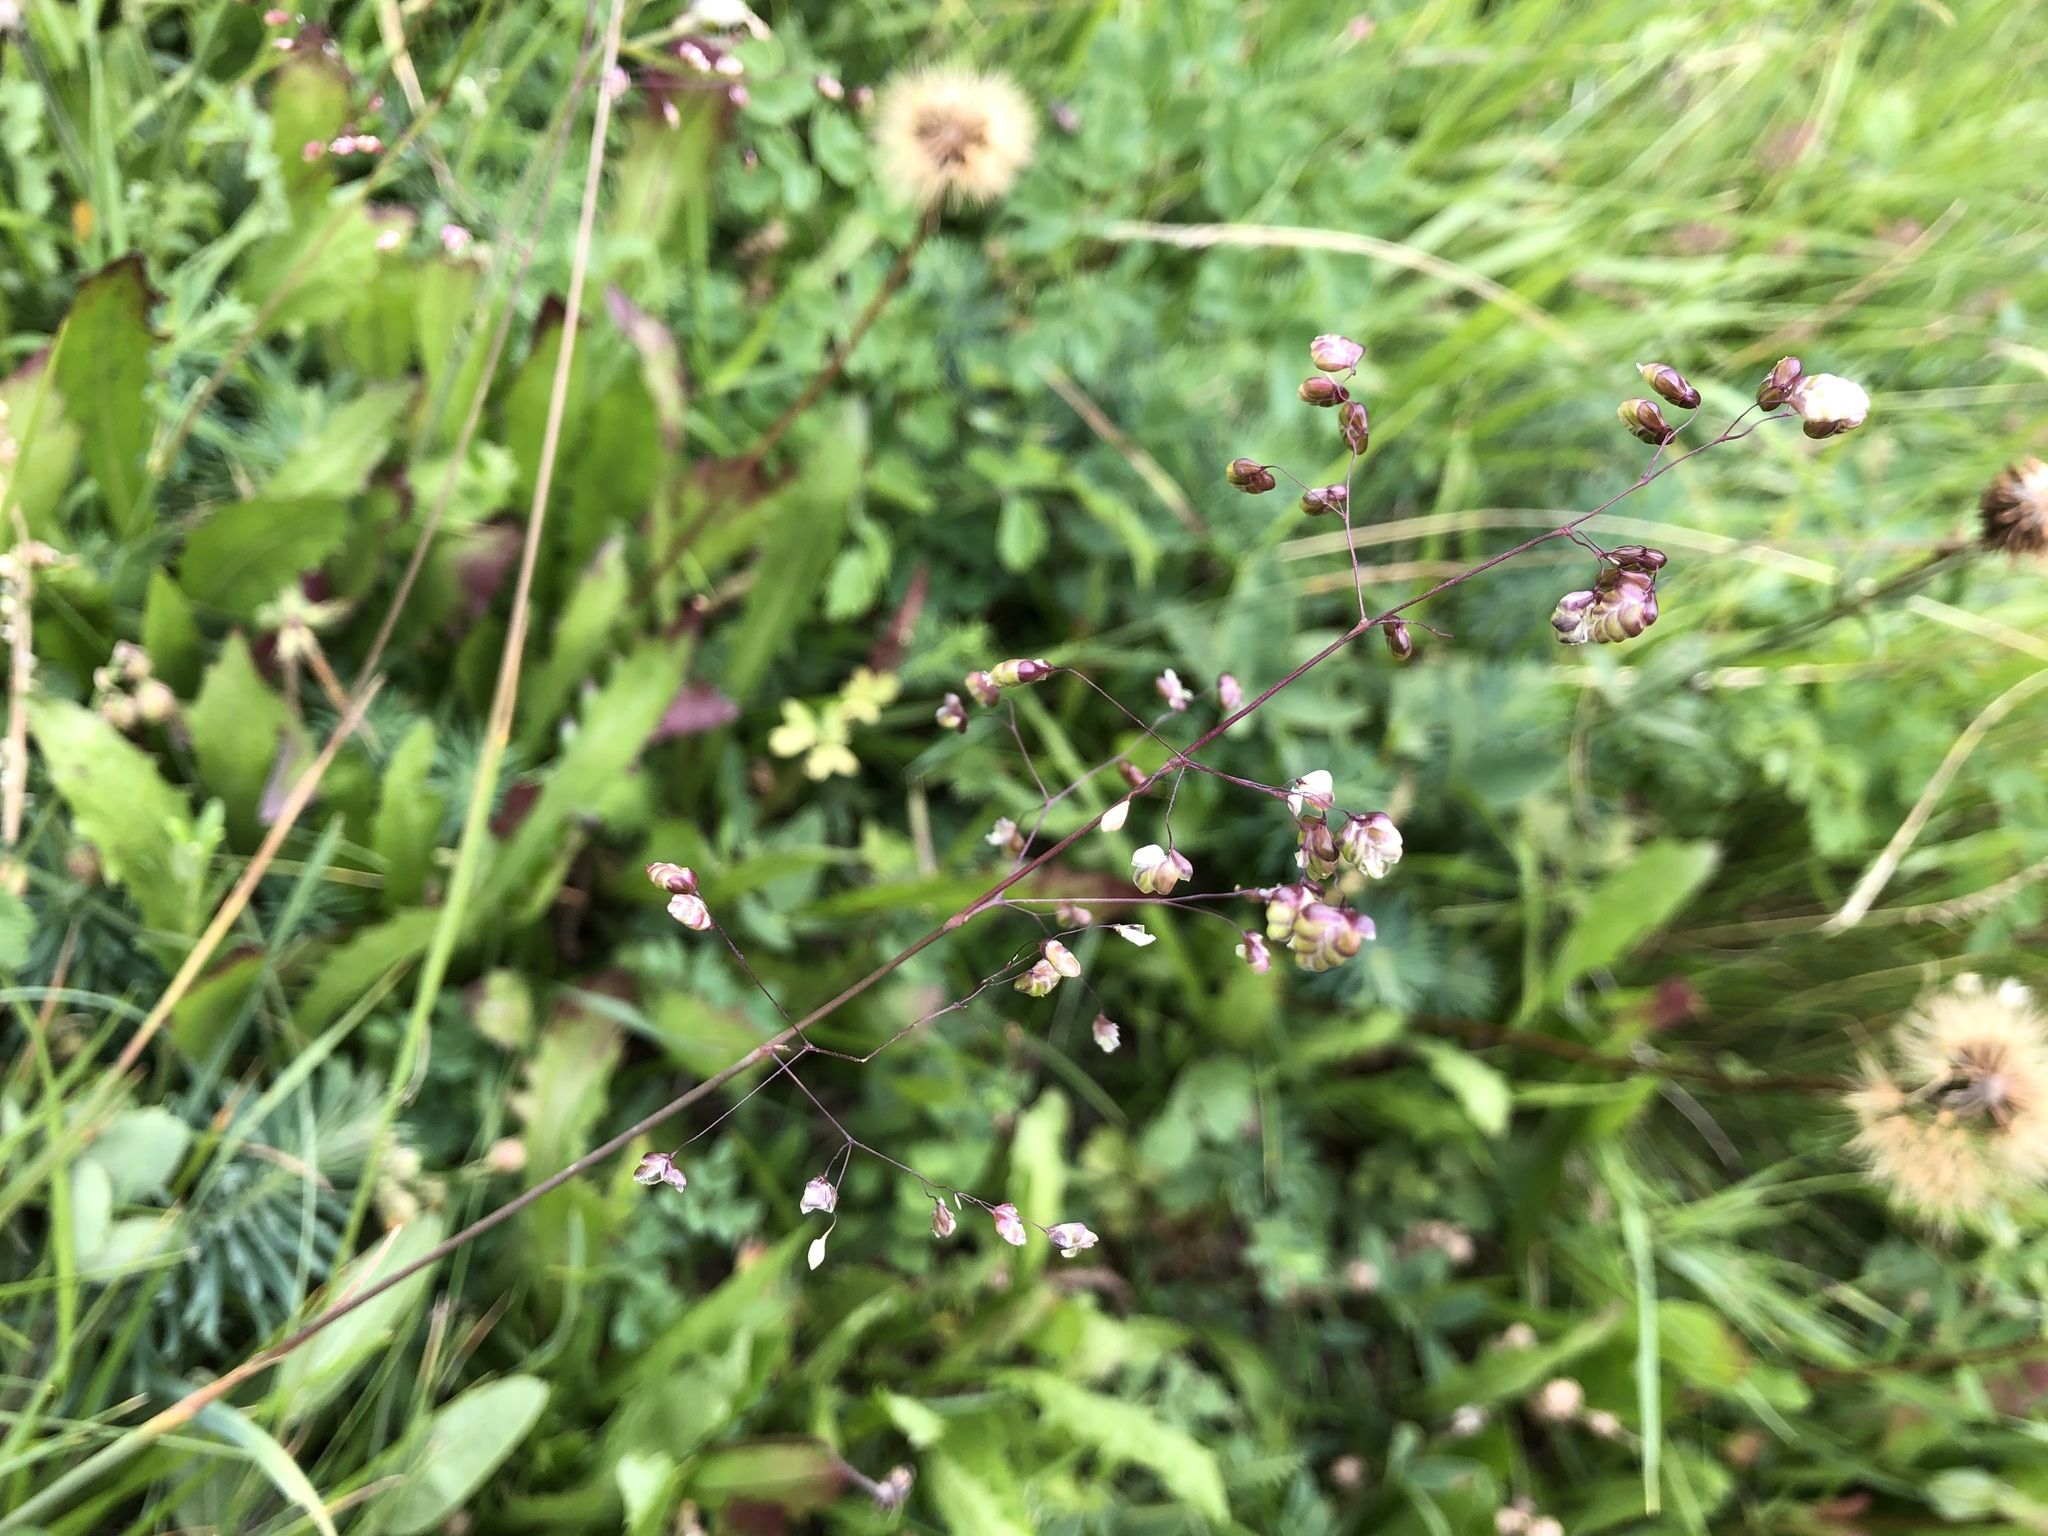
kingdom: Plantae
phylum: Tracheophyta
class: Liliopsida
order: Poales
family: Poaceae
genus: Briza
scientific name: Briza media
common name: Quaking grass
